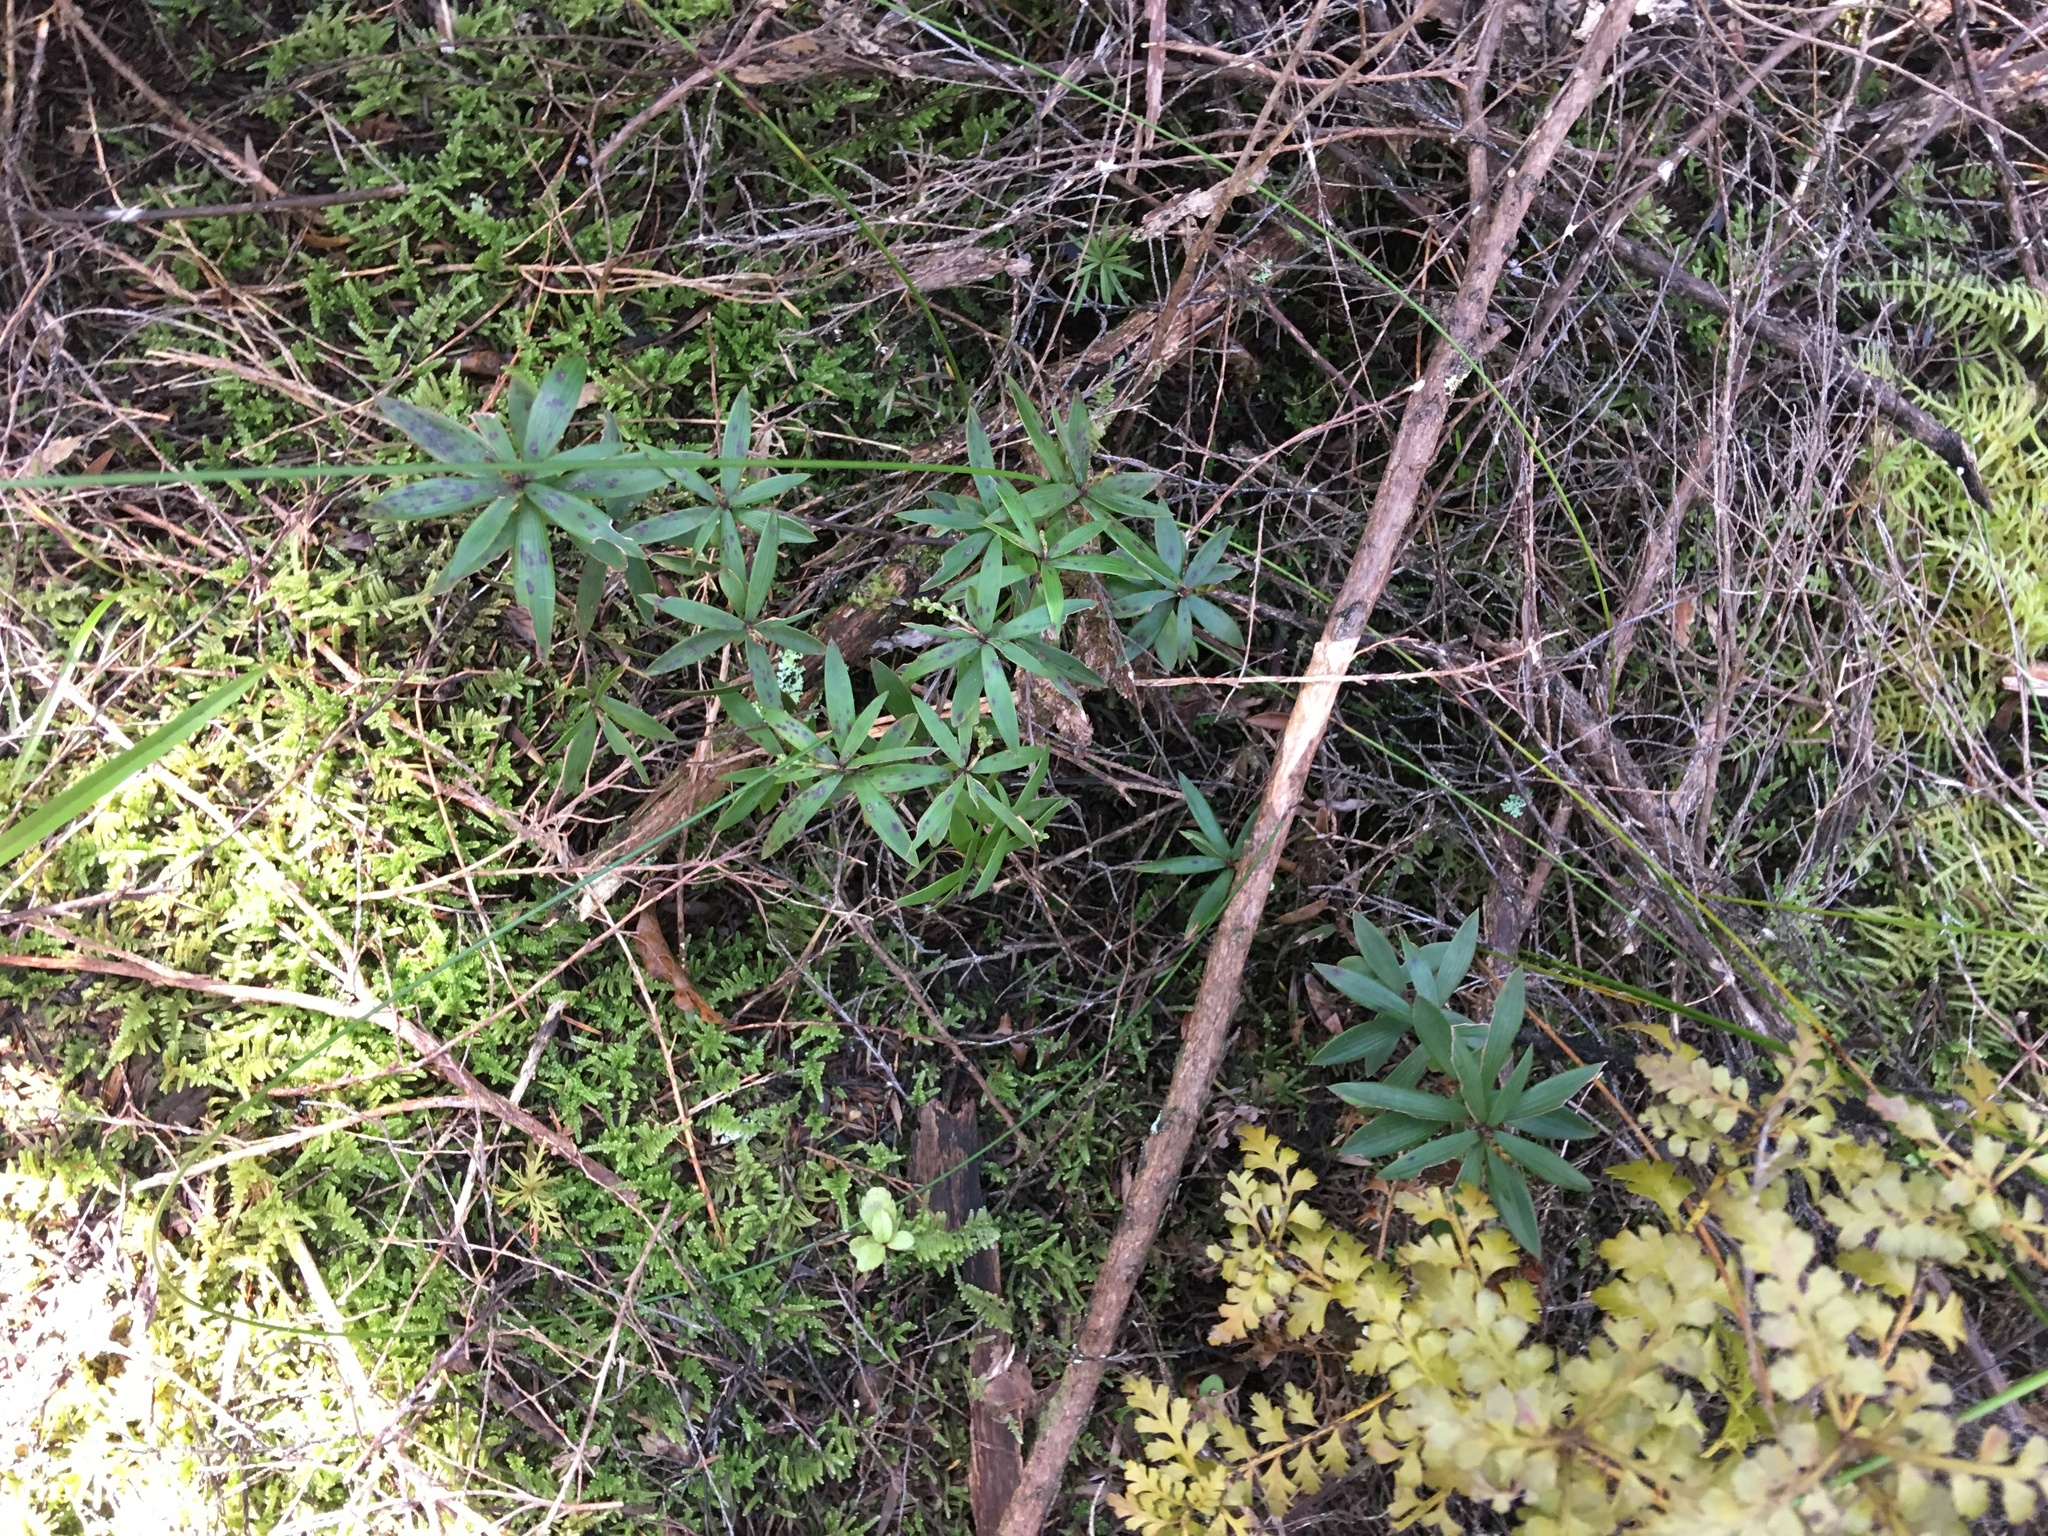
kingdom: Plantae
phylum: Tracheophyta
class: Magnoliopsida
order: Ericales
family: Ericaceae
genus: Leucopogon
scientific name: Leucopogon fasciculatus
